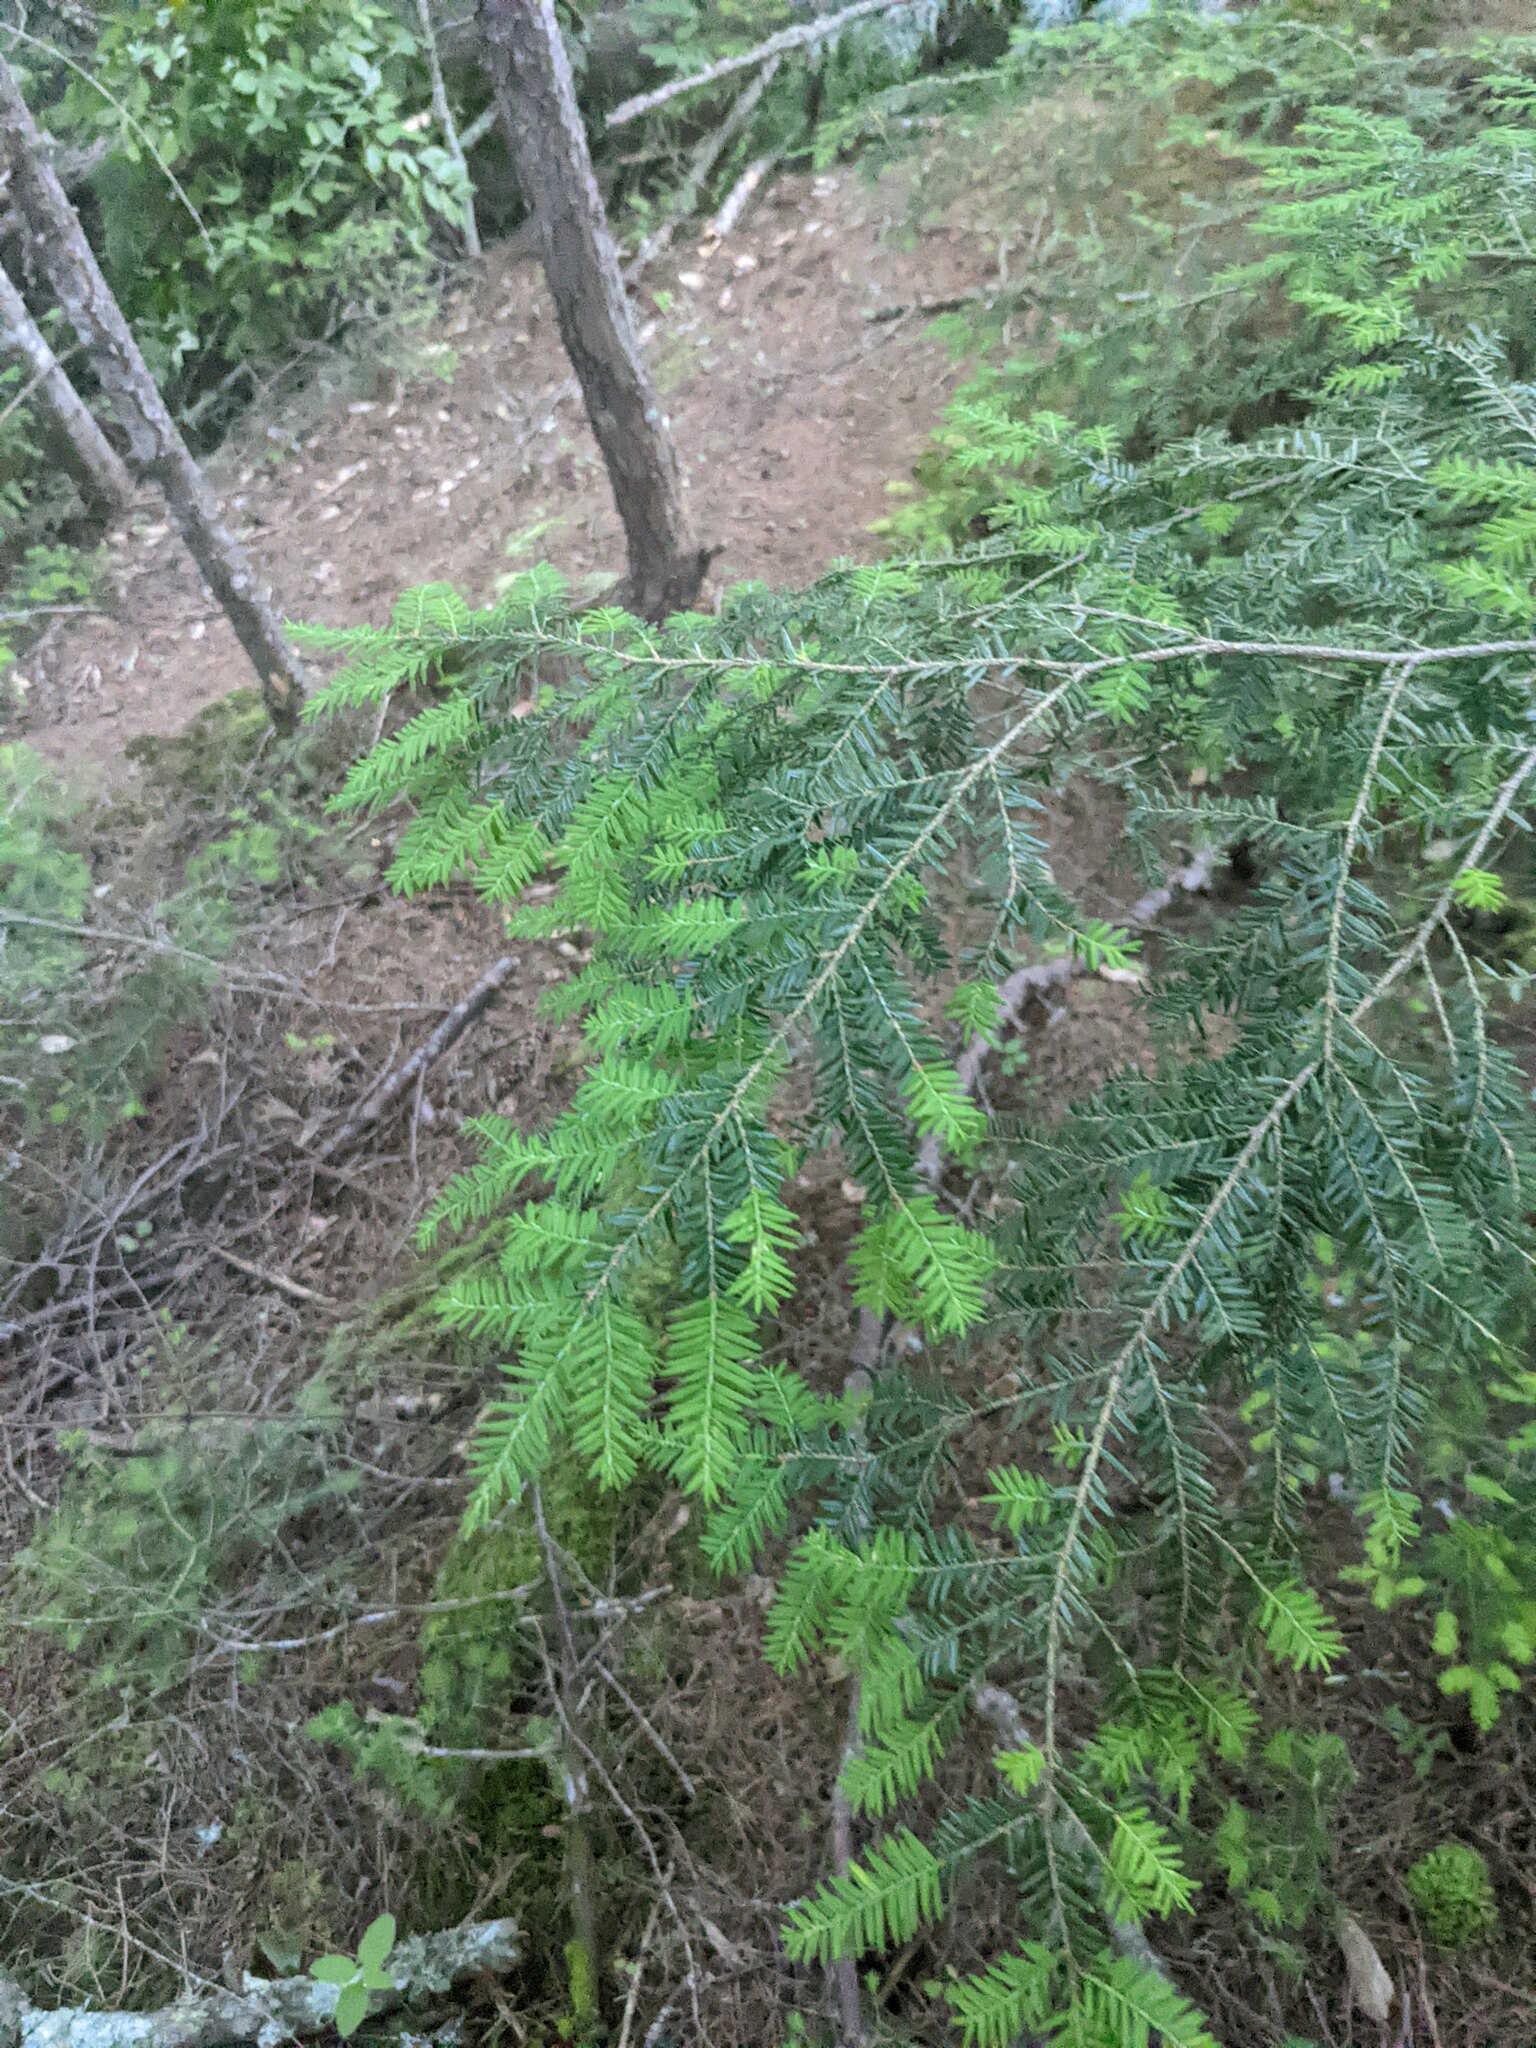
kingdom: Plantae
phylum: Tracheophyta
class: Pinopsida
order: Pinales
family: Pinaceae
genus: Tsuga
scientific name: Tsuga canadensis
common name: Eastern hemlock
